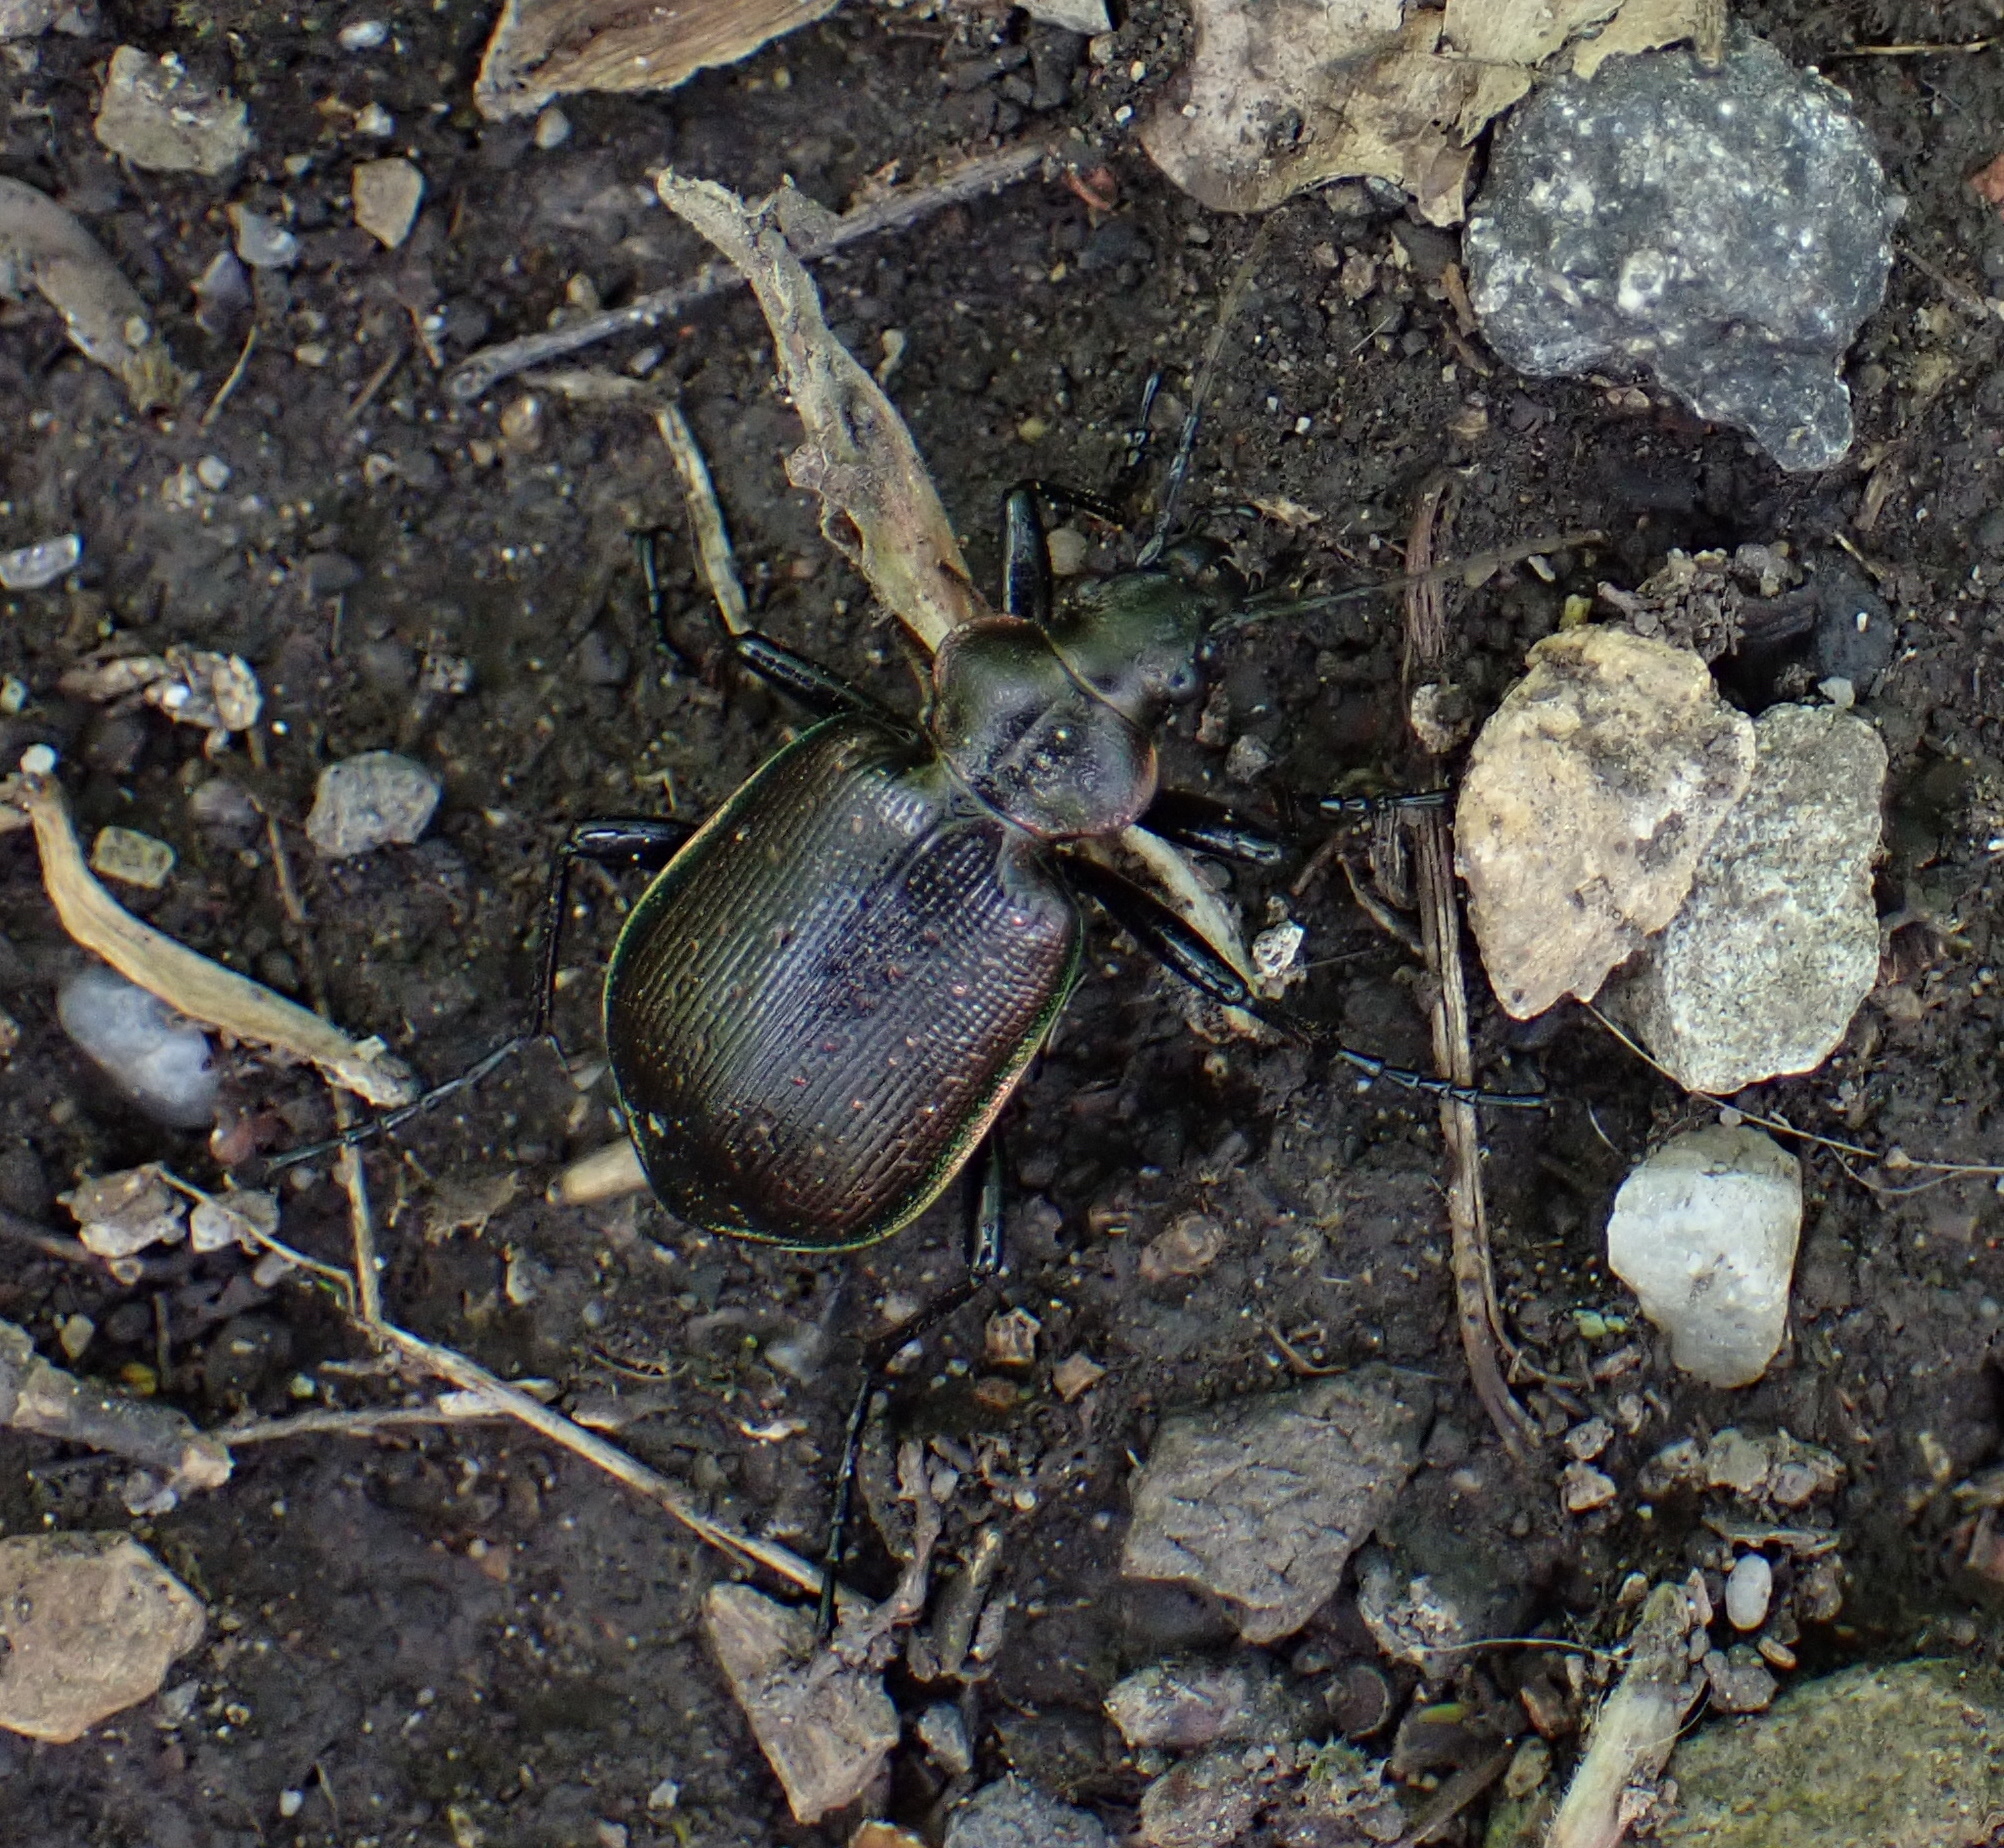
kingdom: Animalia
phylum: Arthropoda
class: Insecta
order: Coleoptera
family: Carabidae
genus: Calosoma
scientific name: Calosoma inquisitor
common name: Caterpillar-hunter
